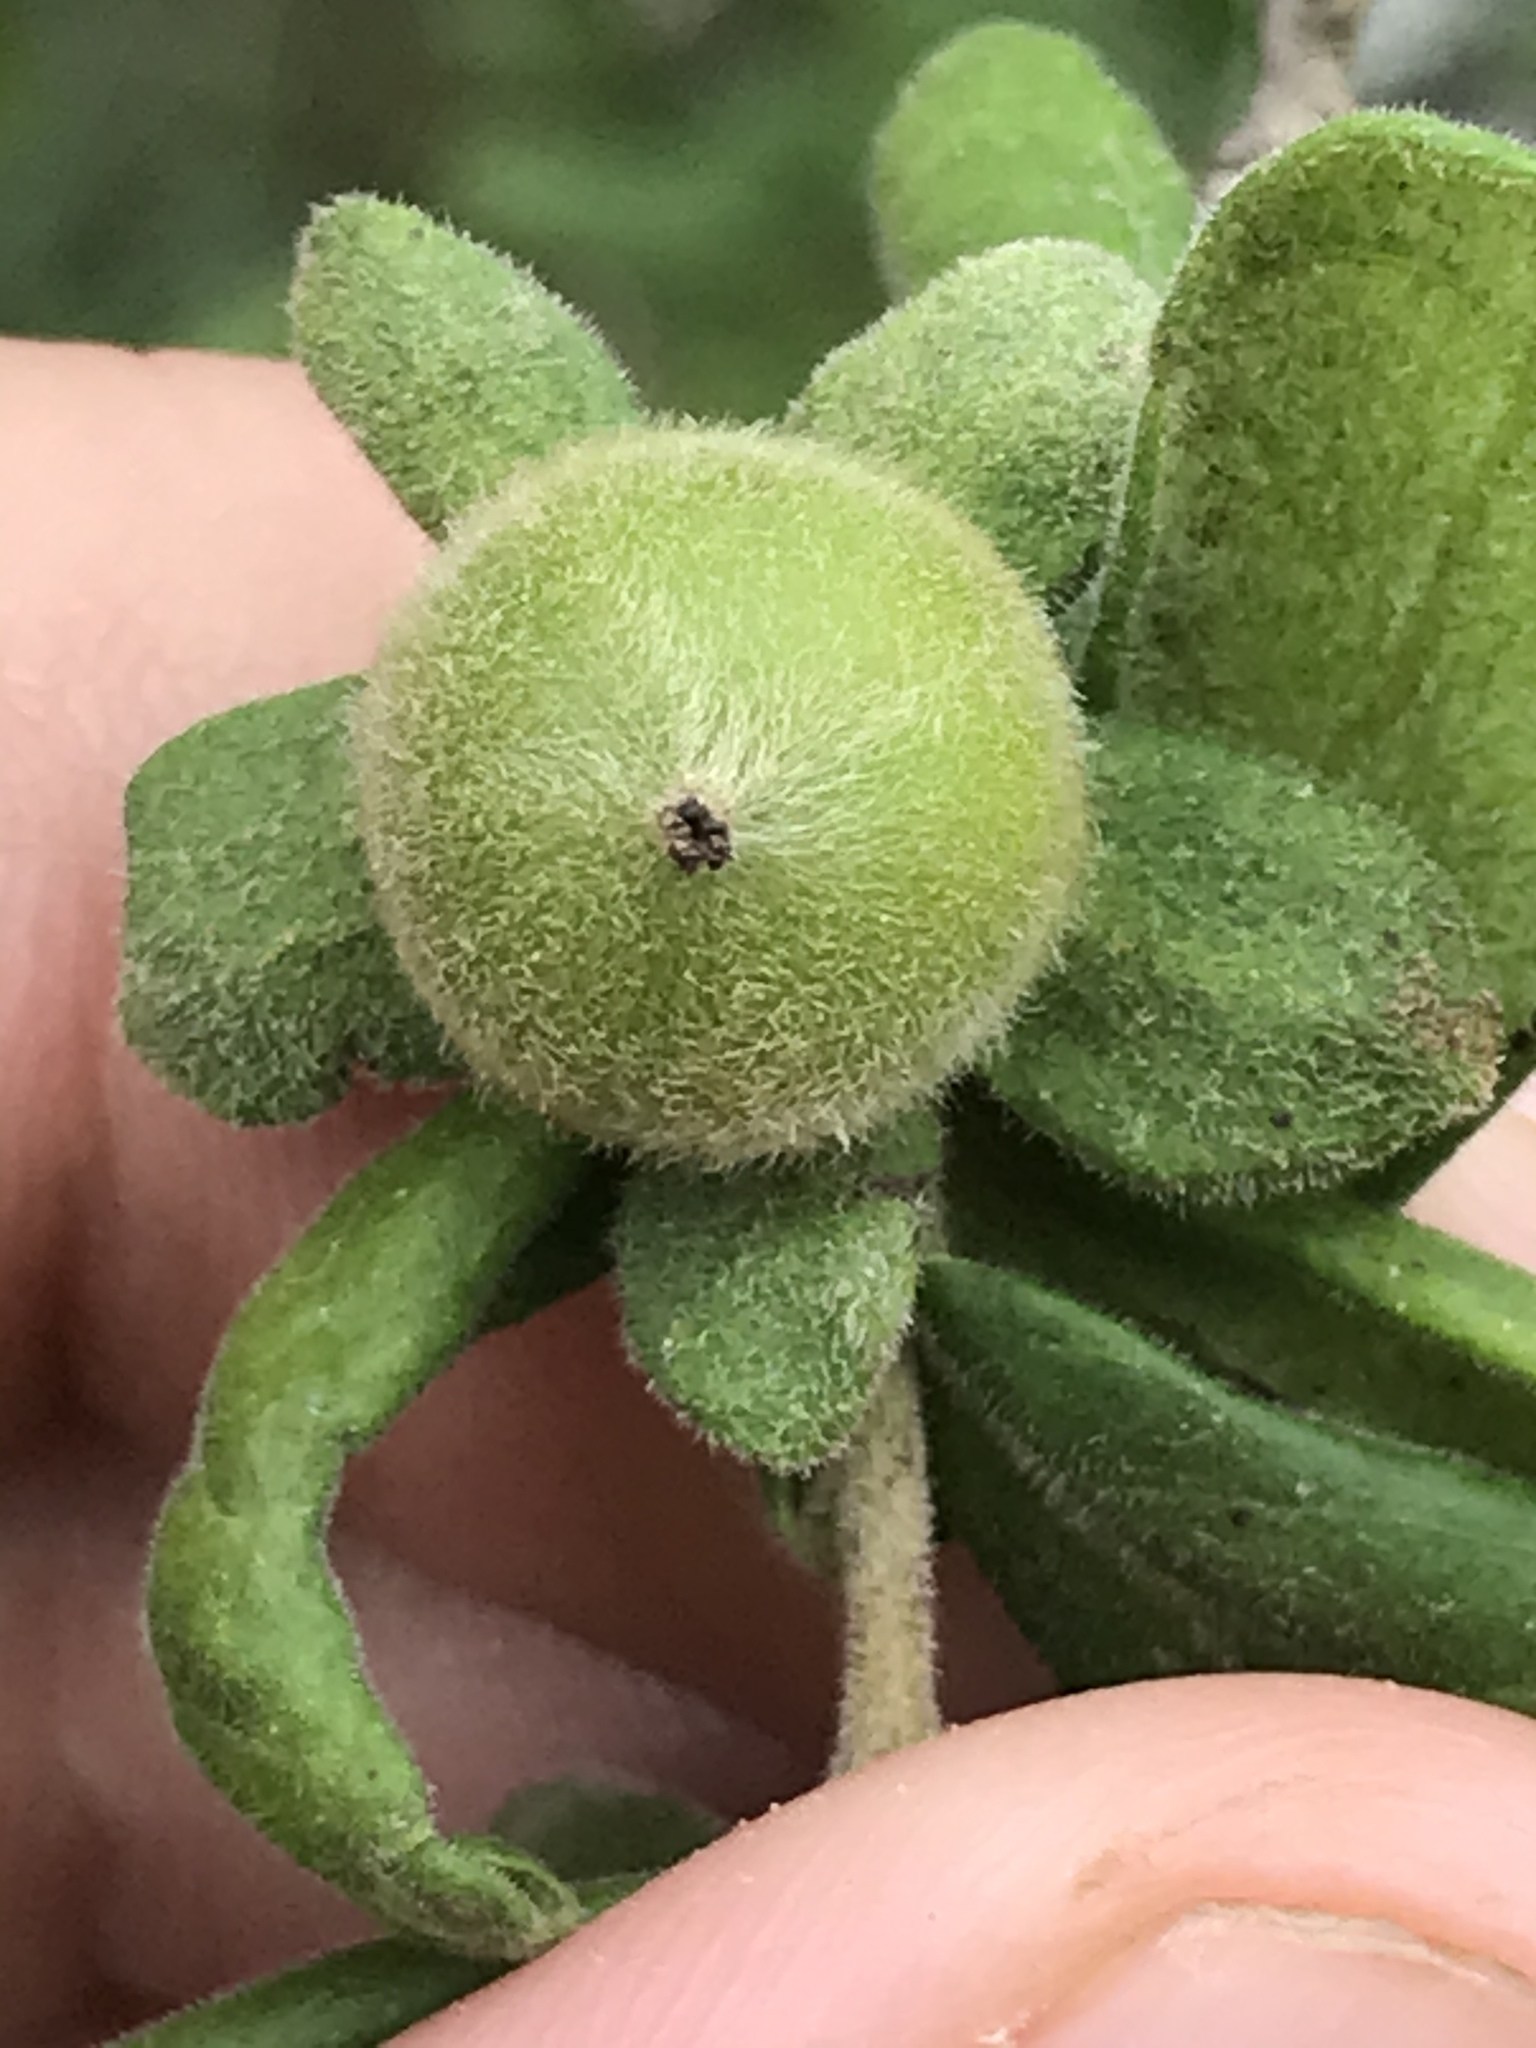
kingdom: Plantae
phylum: Tracheophyta
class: Magnoliopsida
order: Ericales
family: Ebenaceae
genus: Diospyros
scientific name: Diospyros texana
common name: Texas persimmon
